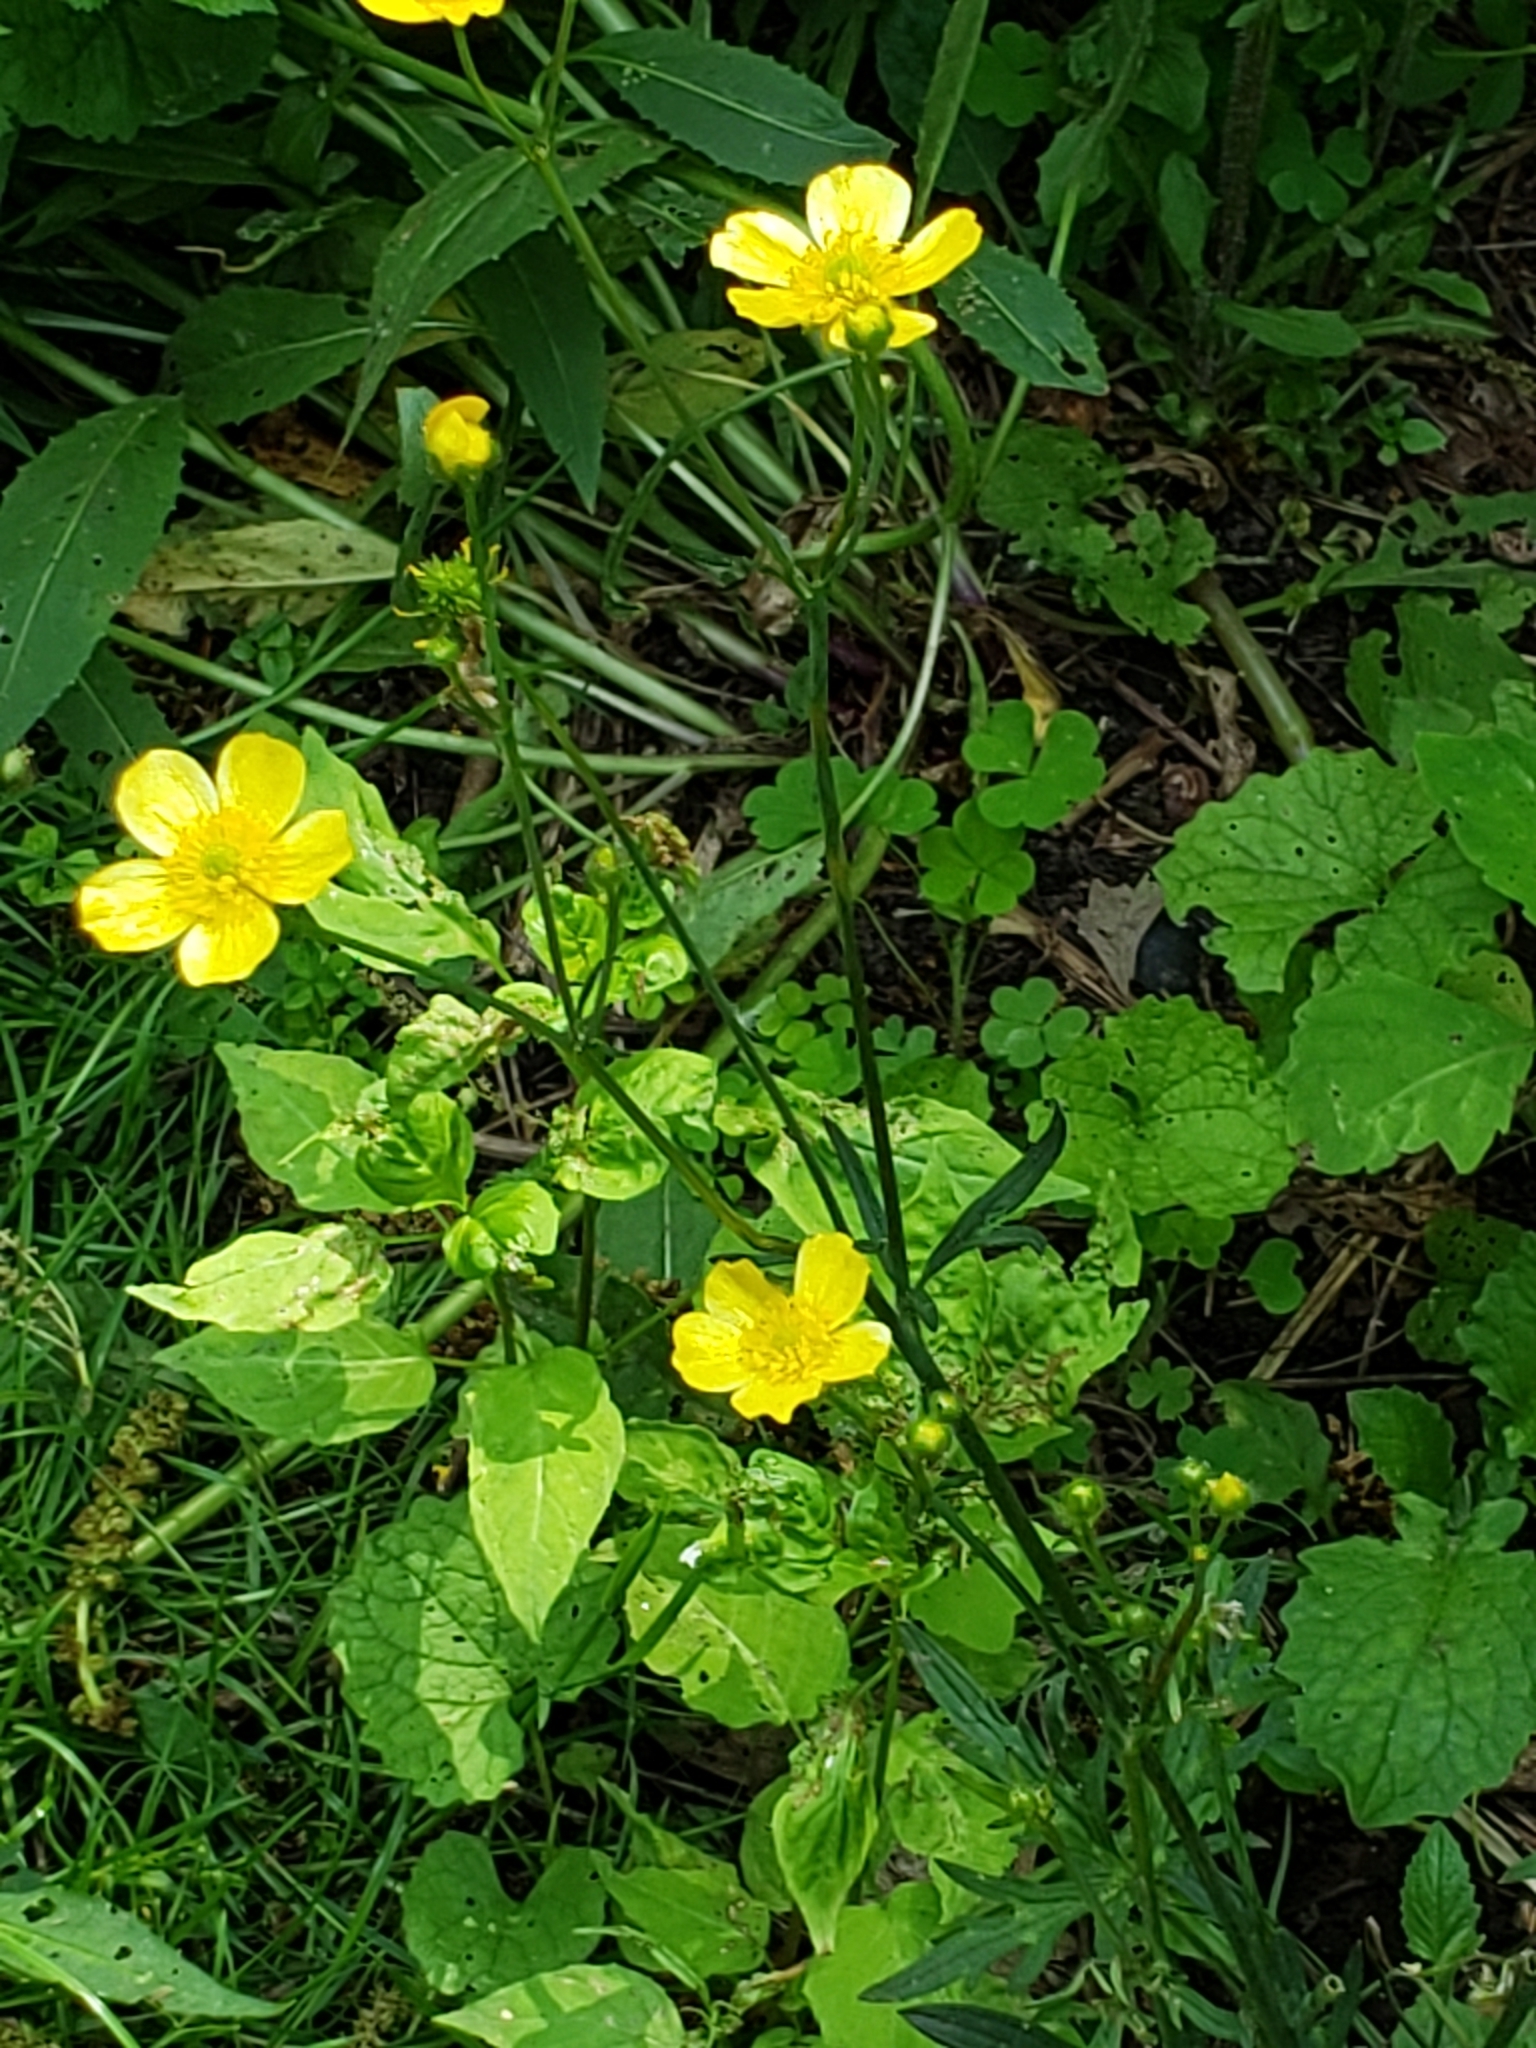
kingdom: Plantae
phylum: Tracheophyta
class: Magnoliopsida
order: Ranunculales
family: Ranunculaceae
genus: Ranunculus
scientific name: Ranunculus acris
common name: Meadow buttercup
